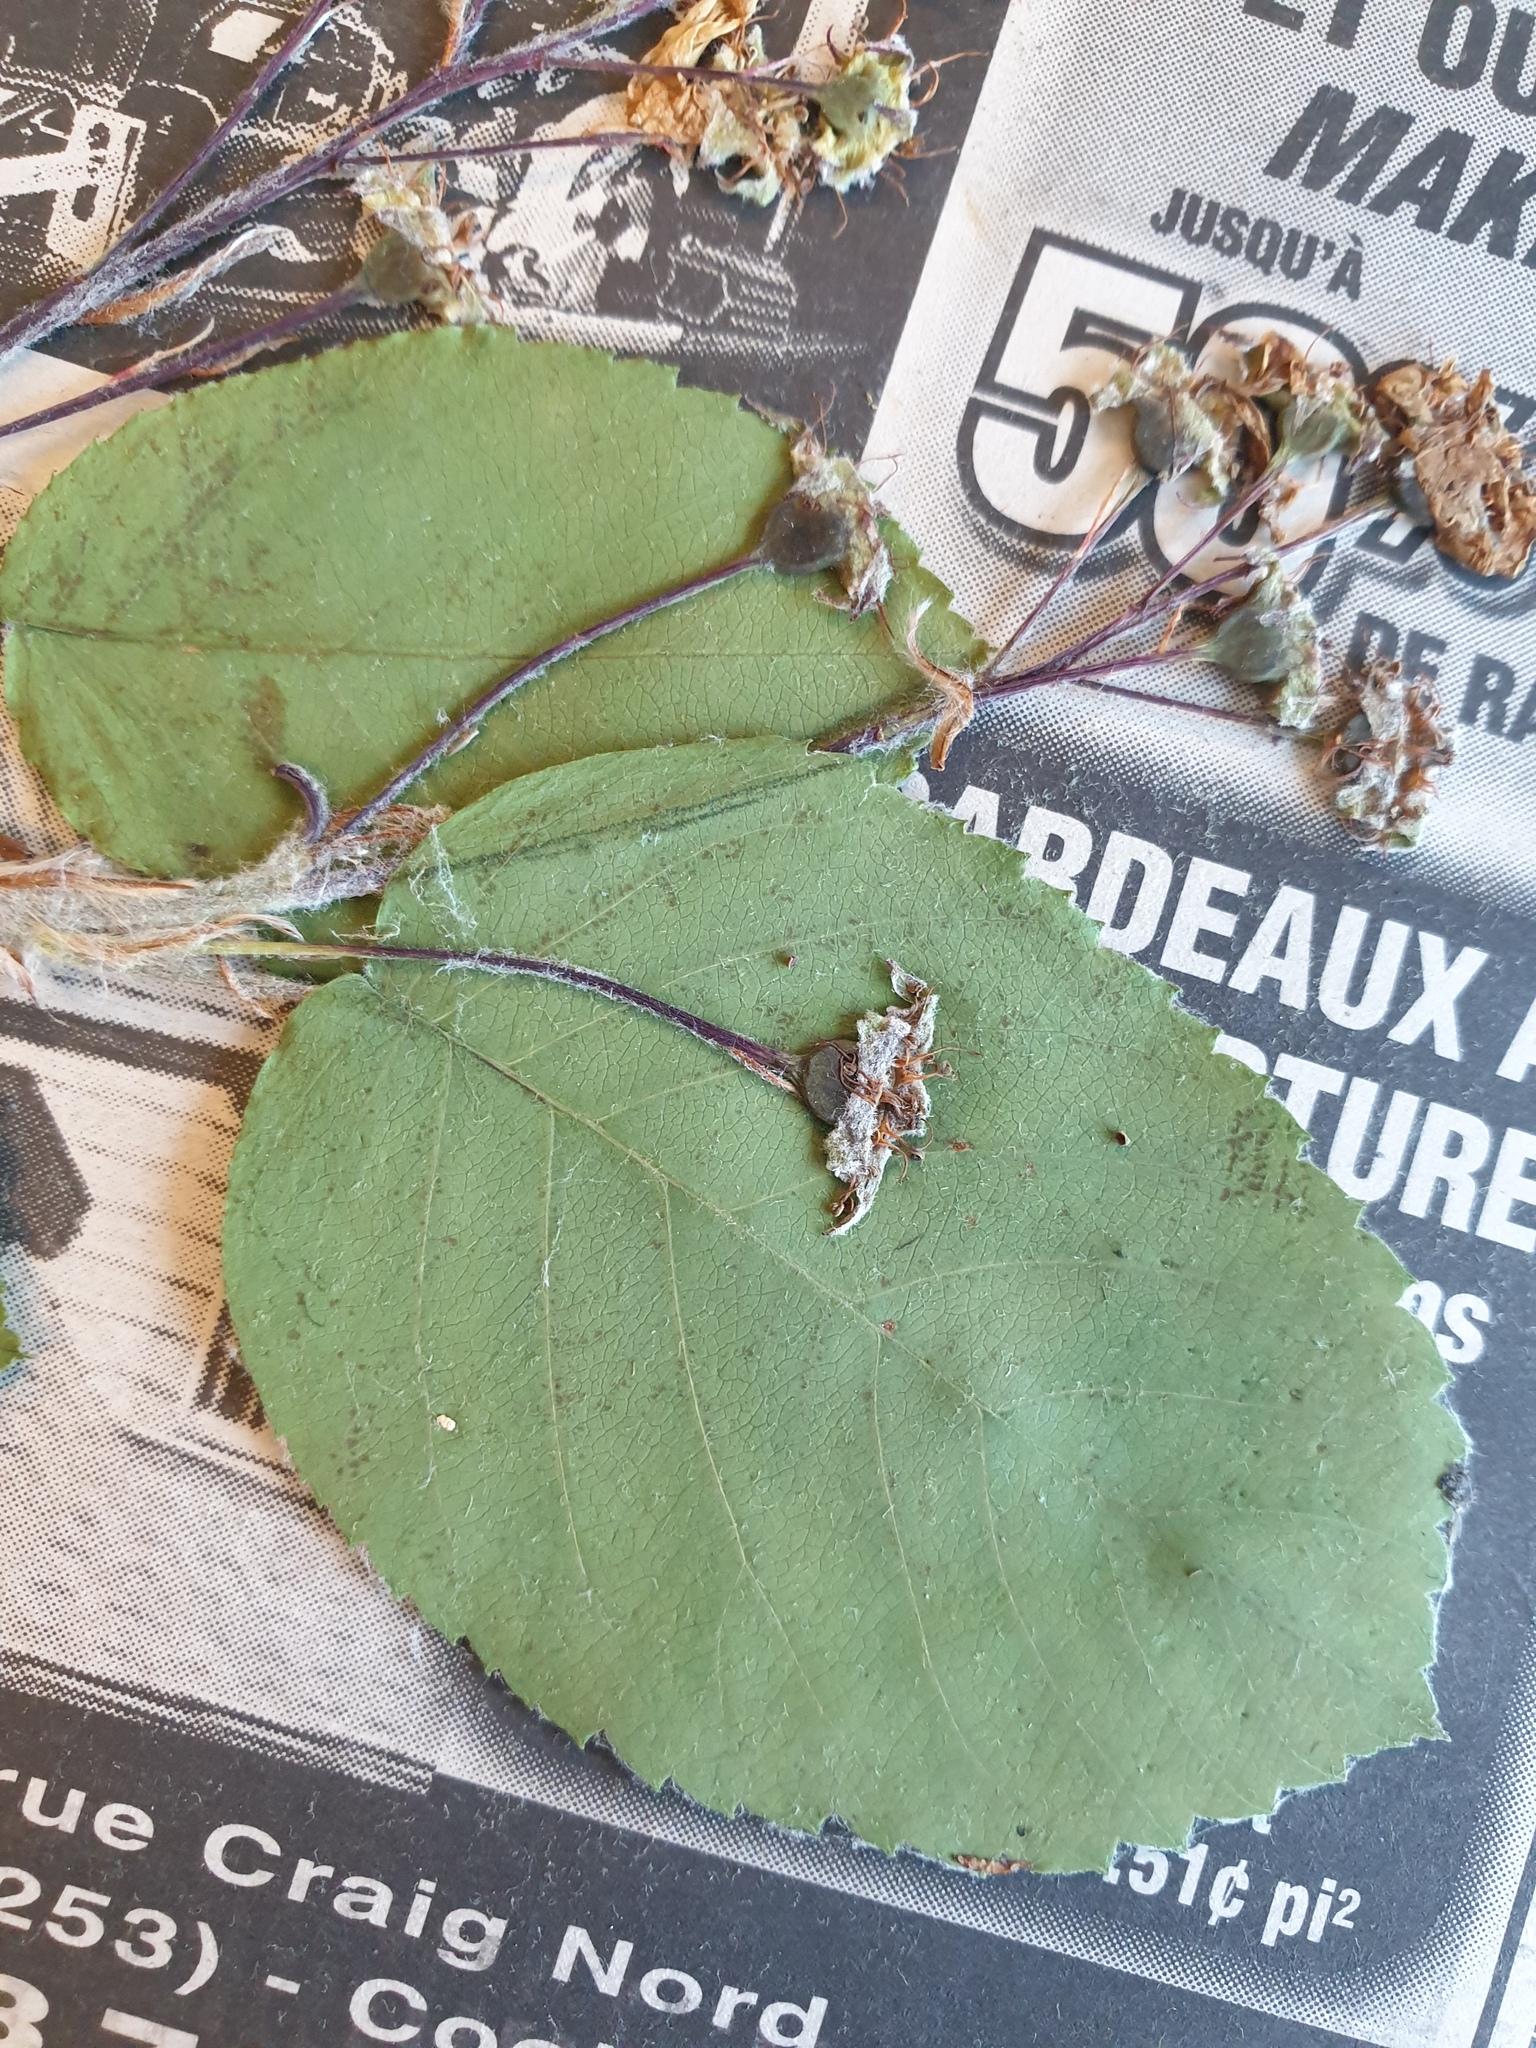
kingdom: Plantae
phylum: Tracheophyta
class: Magnoliopsida
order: Rosales
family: Rosaceae
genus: Amelanchier
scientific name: Amelanchier sanguinea
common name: Huron serviceberry
